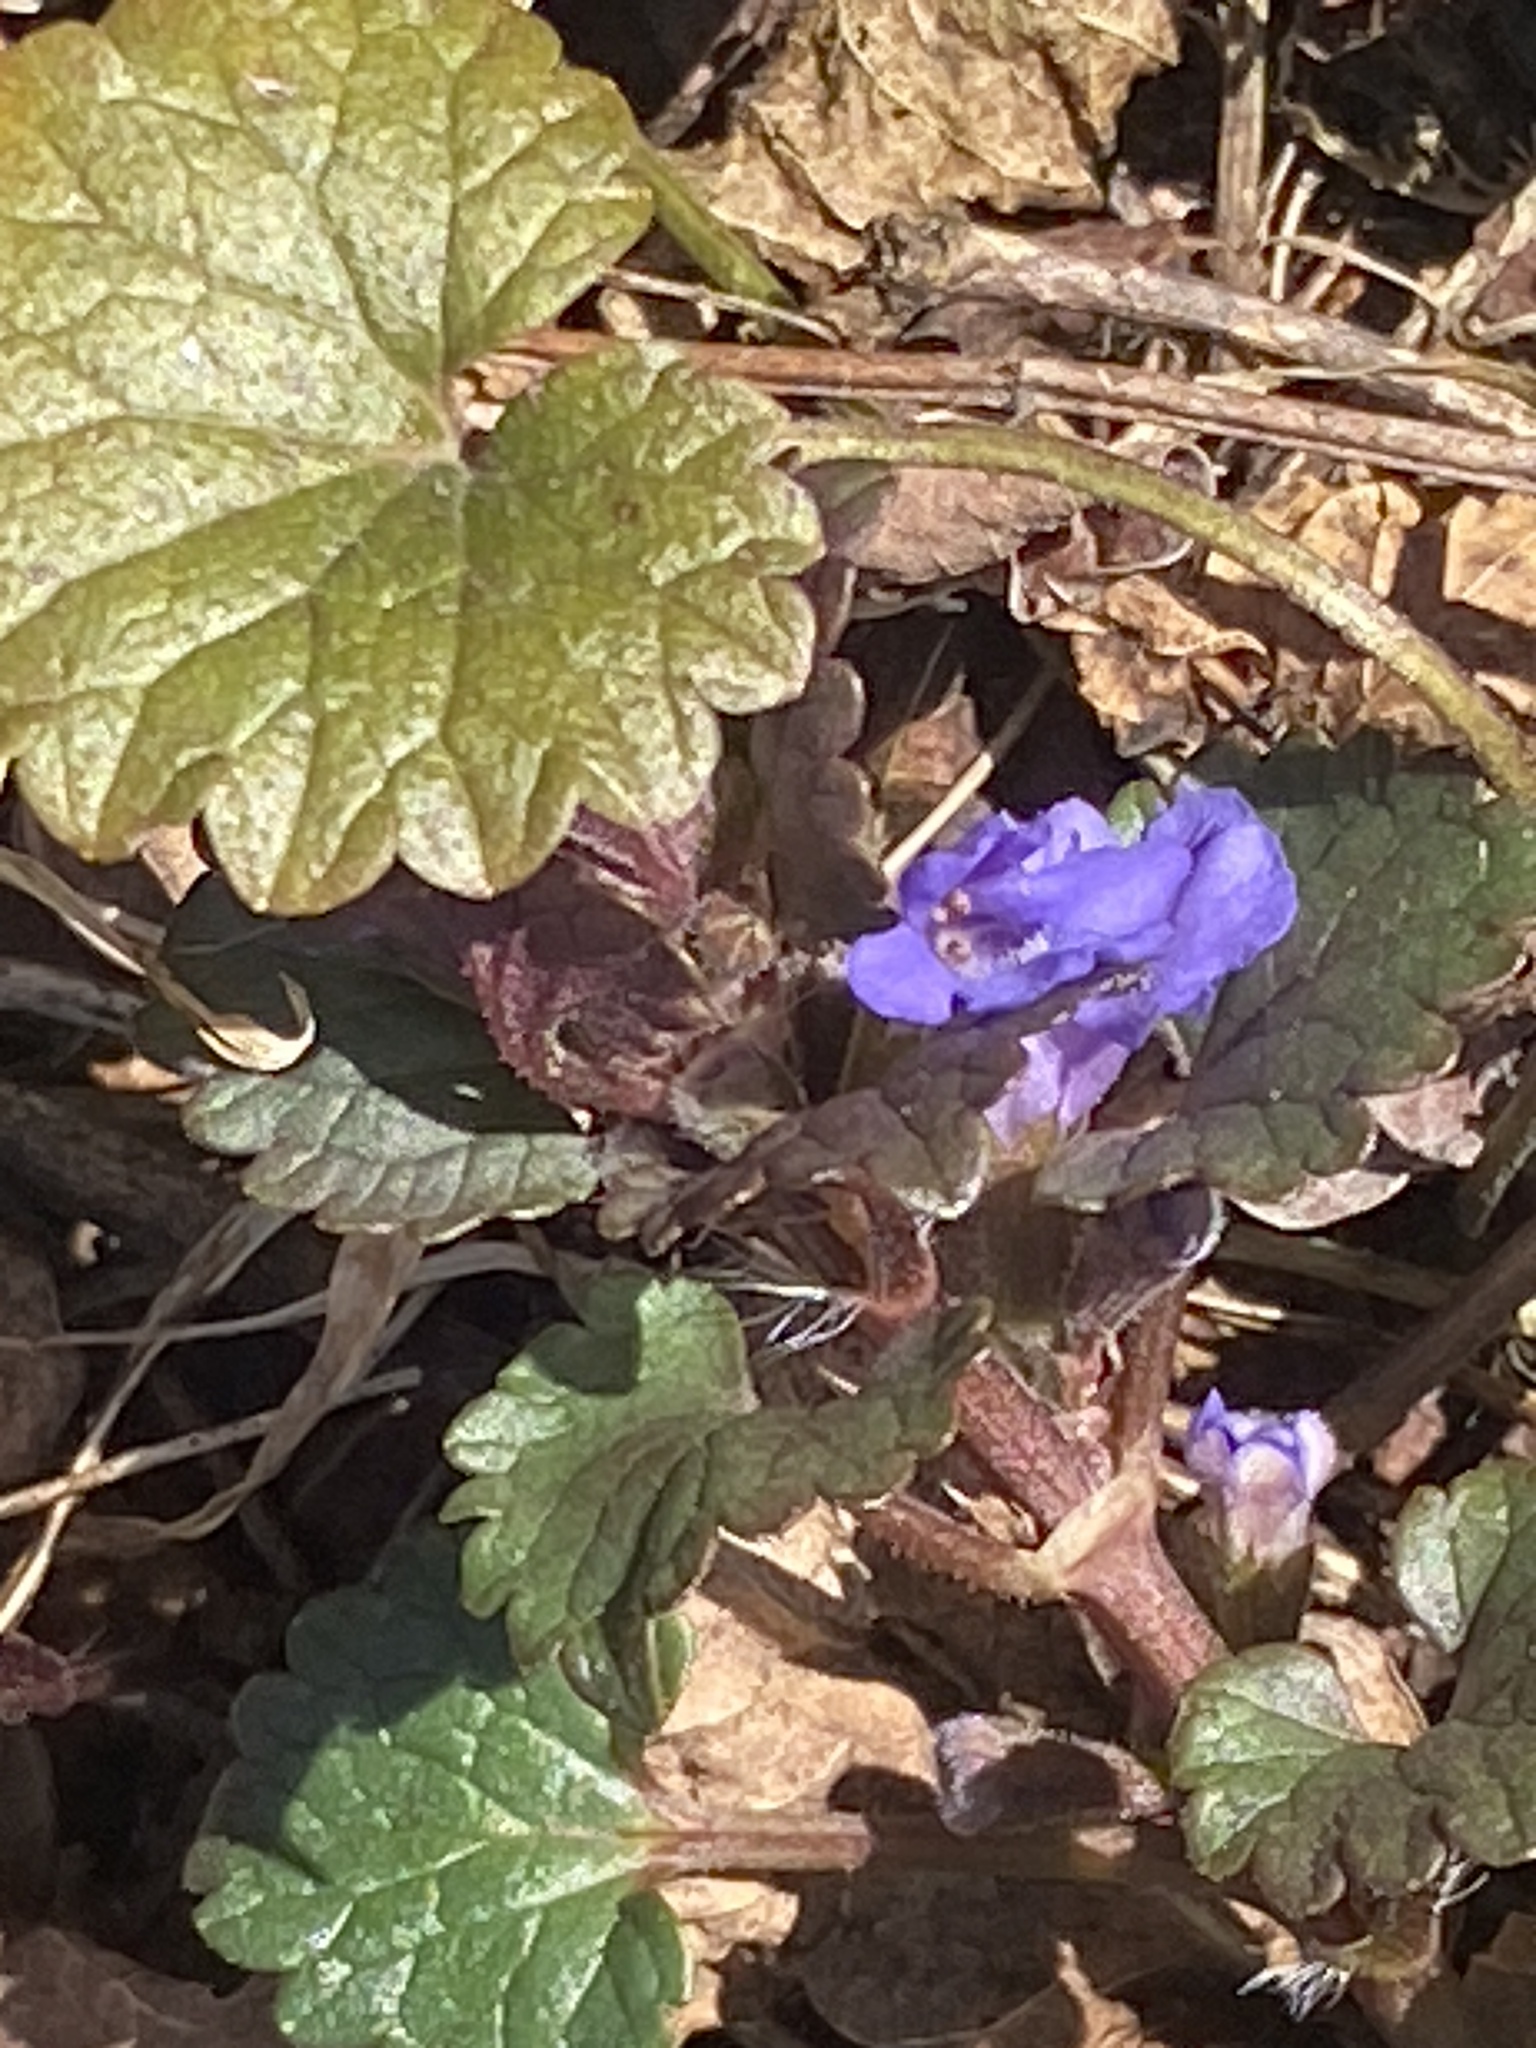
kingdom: Plantae
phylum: Tracheophyta
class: Magnoliopsida
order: Lamiales
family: Lamiaceae
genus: Glechoma
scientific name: Glechoma hederacea
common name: Ground ivy
